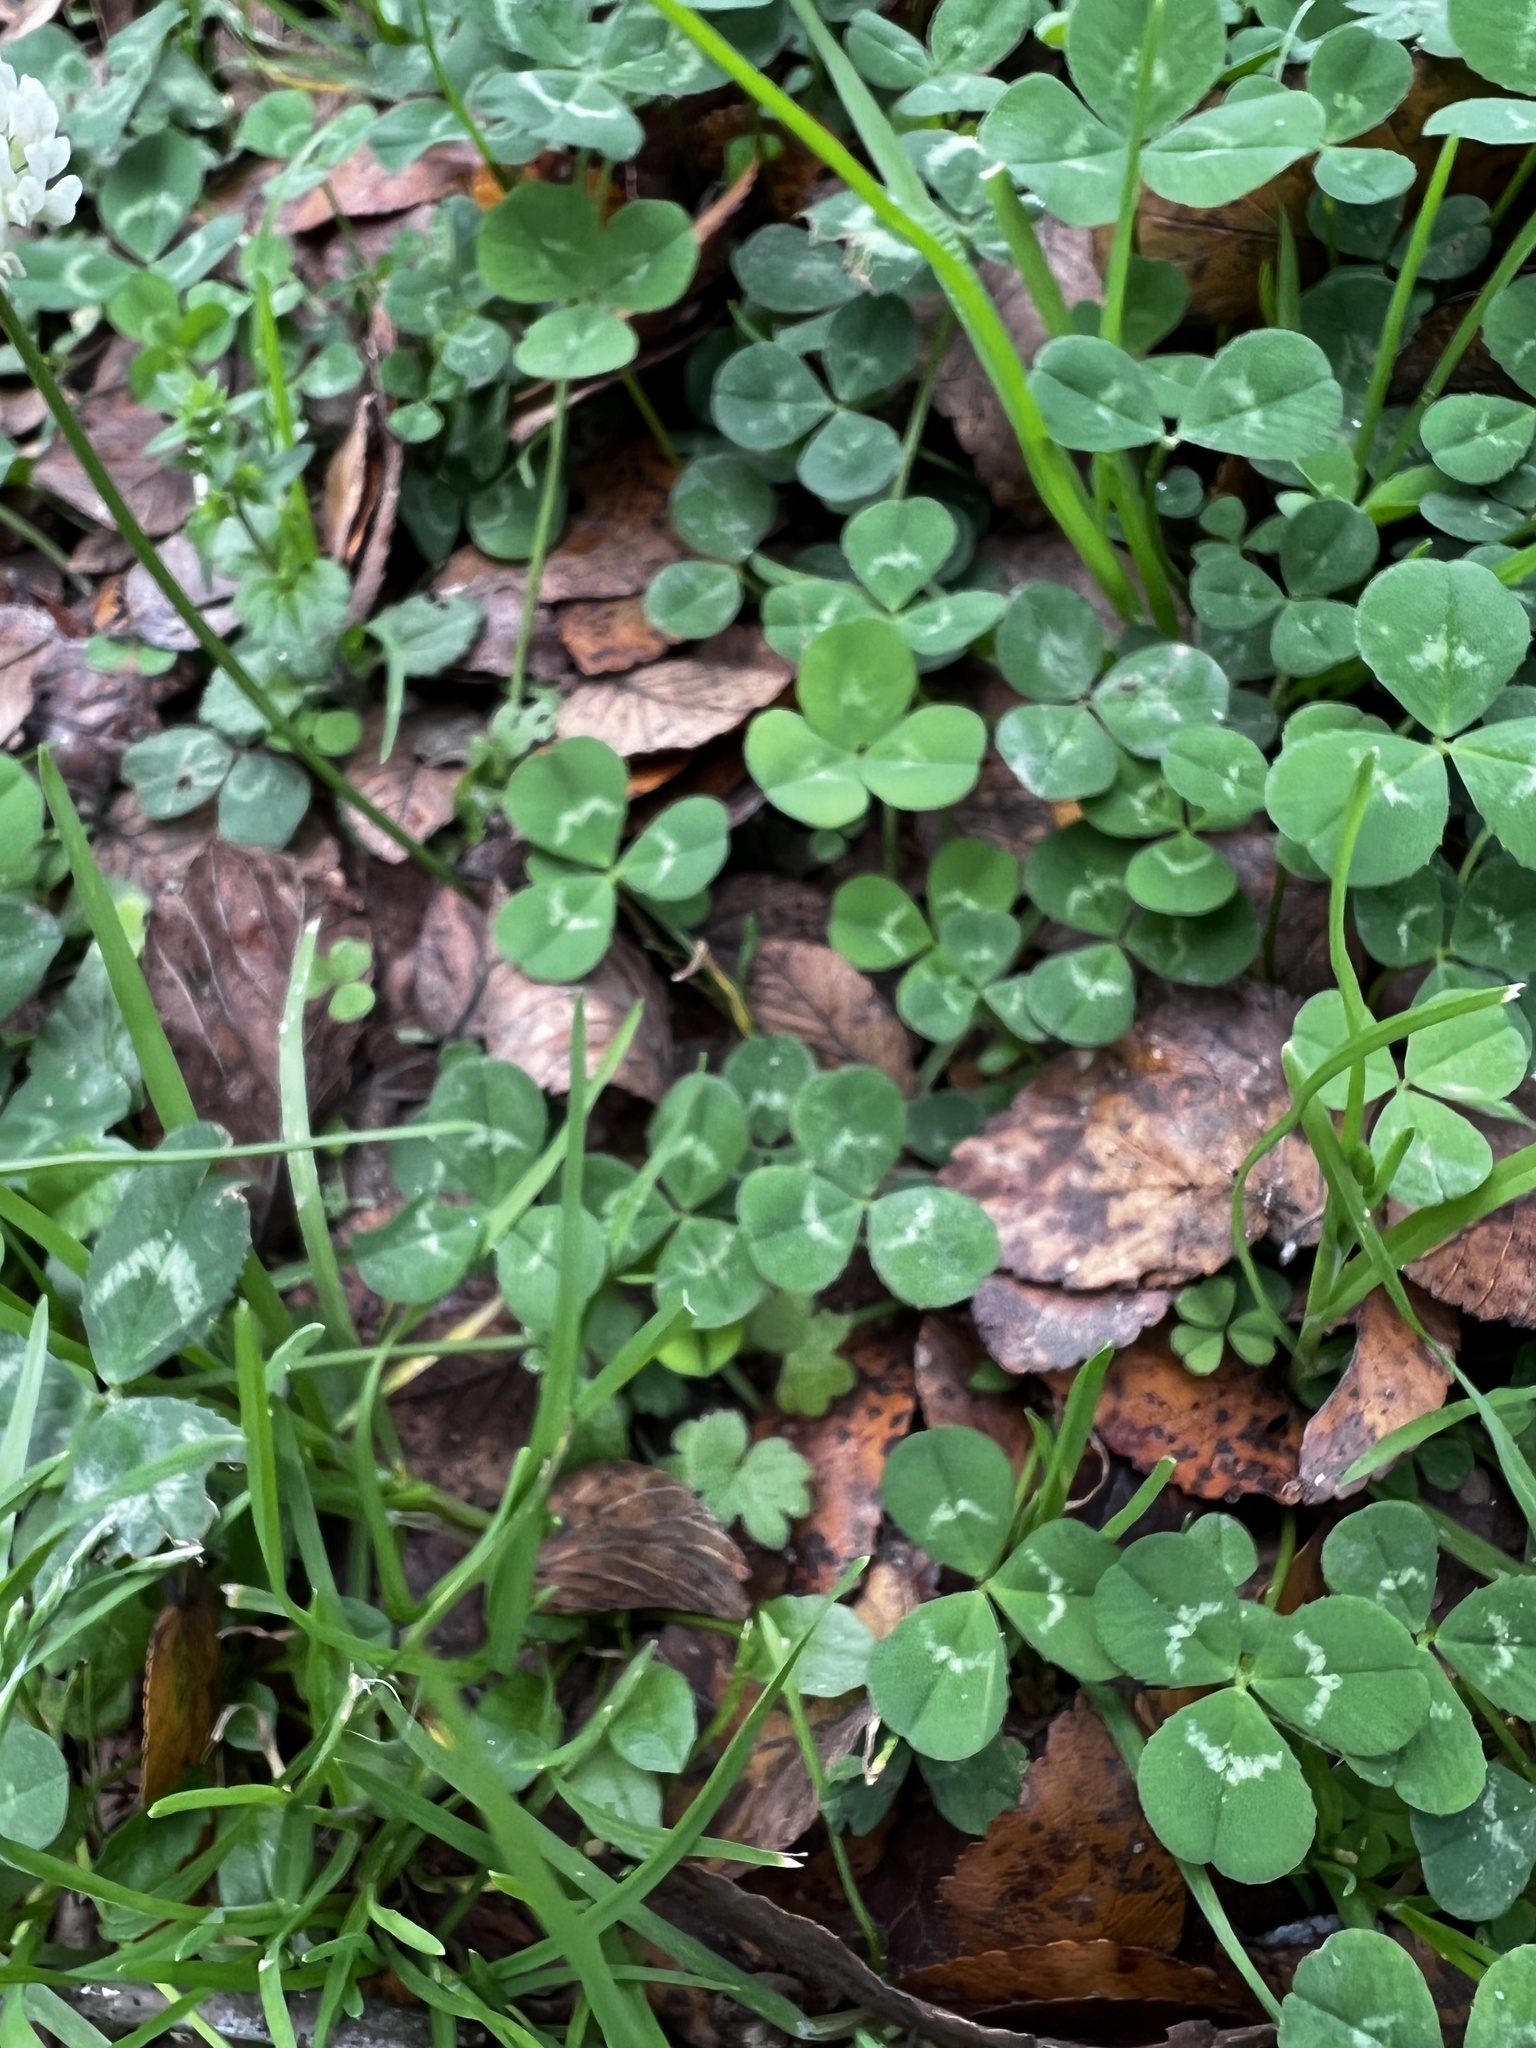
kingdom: Plantae
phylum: Tracheophyta
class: Magnoliopsida
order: Fabales
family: Fabaceae
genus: Trifolium
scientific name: Trifolium repens
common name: White clover
